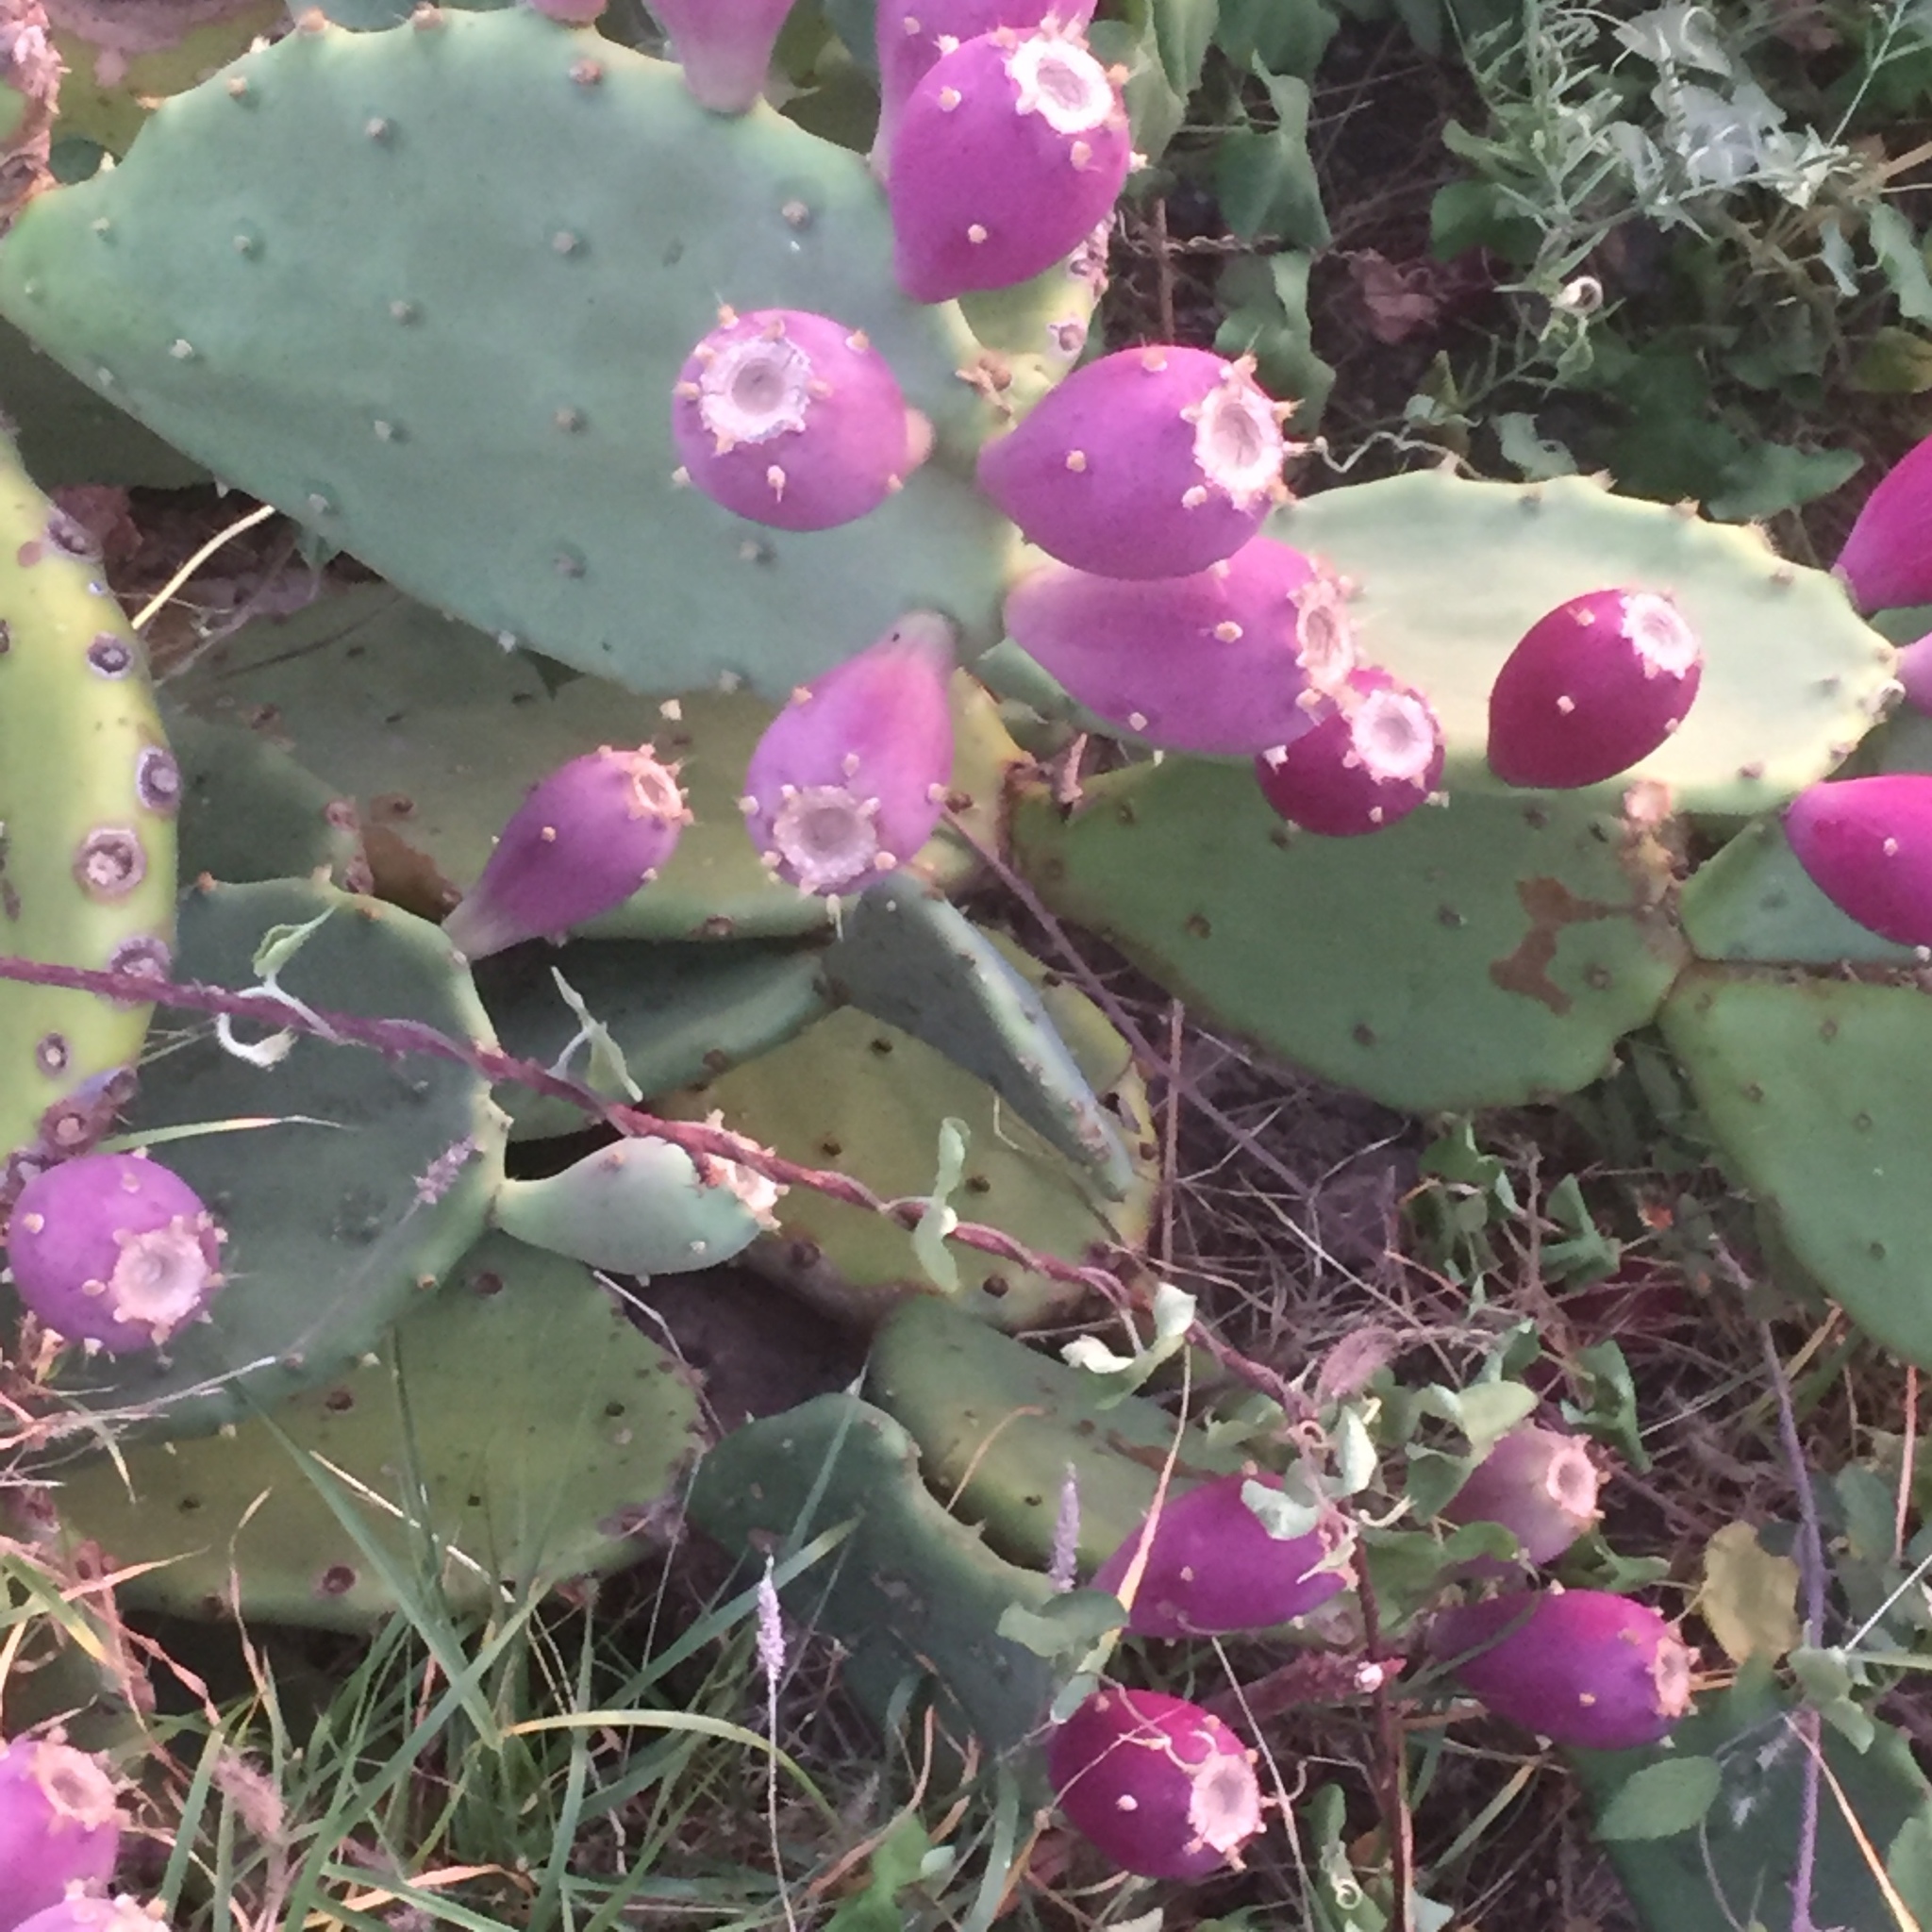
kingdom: Plantae
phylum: Tracheophyta
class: Magnoliopsida
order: Caryophyllales
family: Cactaceae
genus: Opuntia
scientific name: Opuntia anahuacensis
